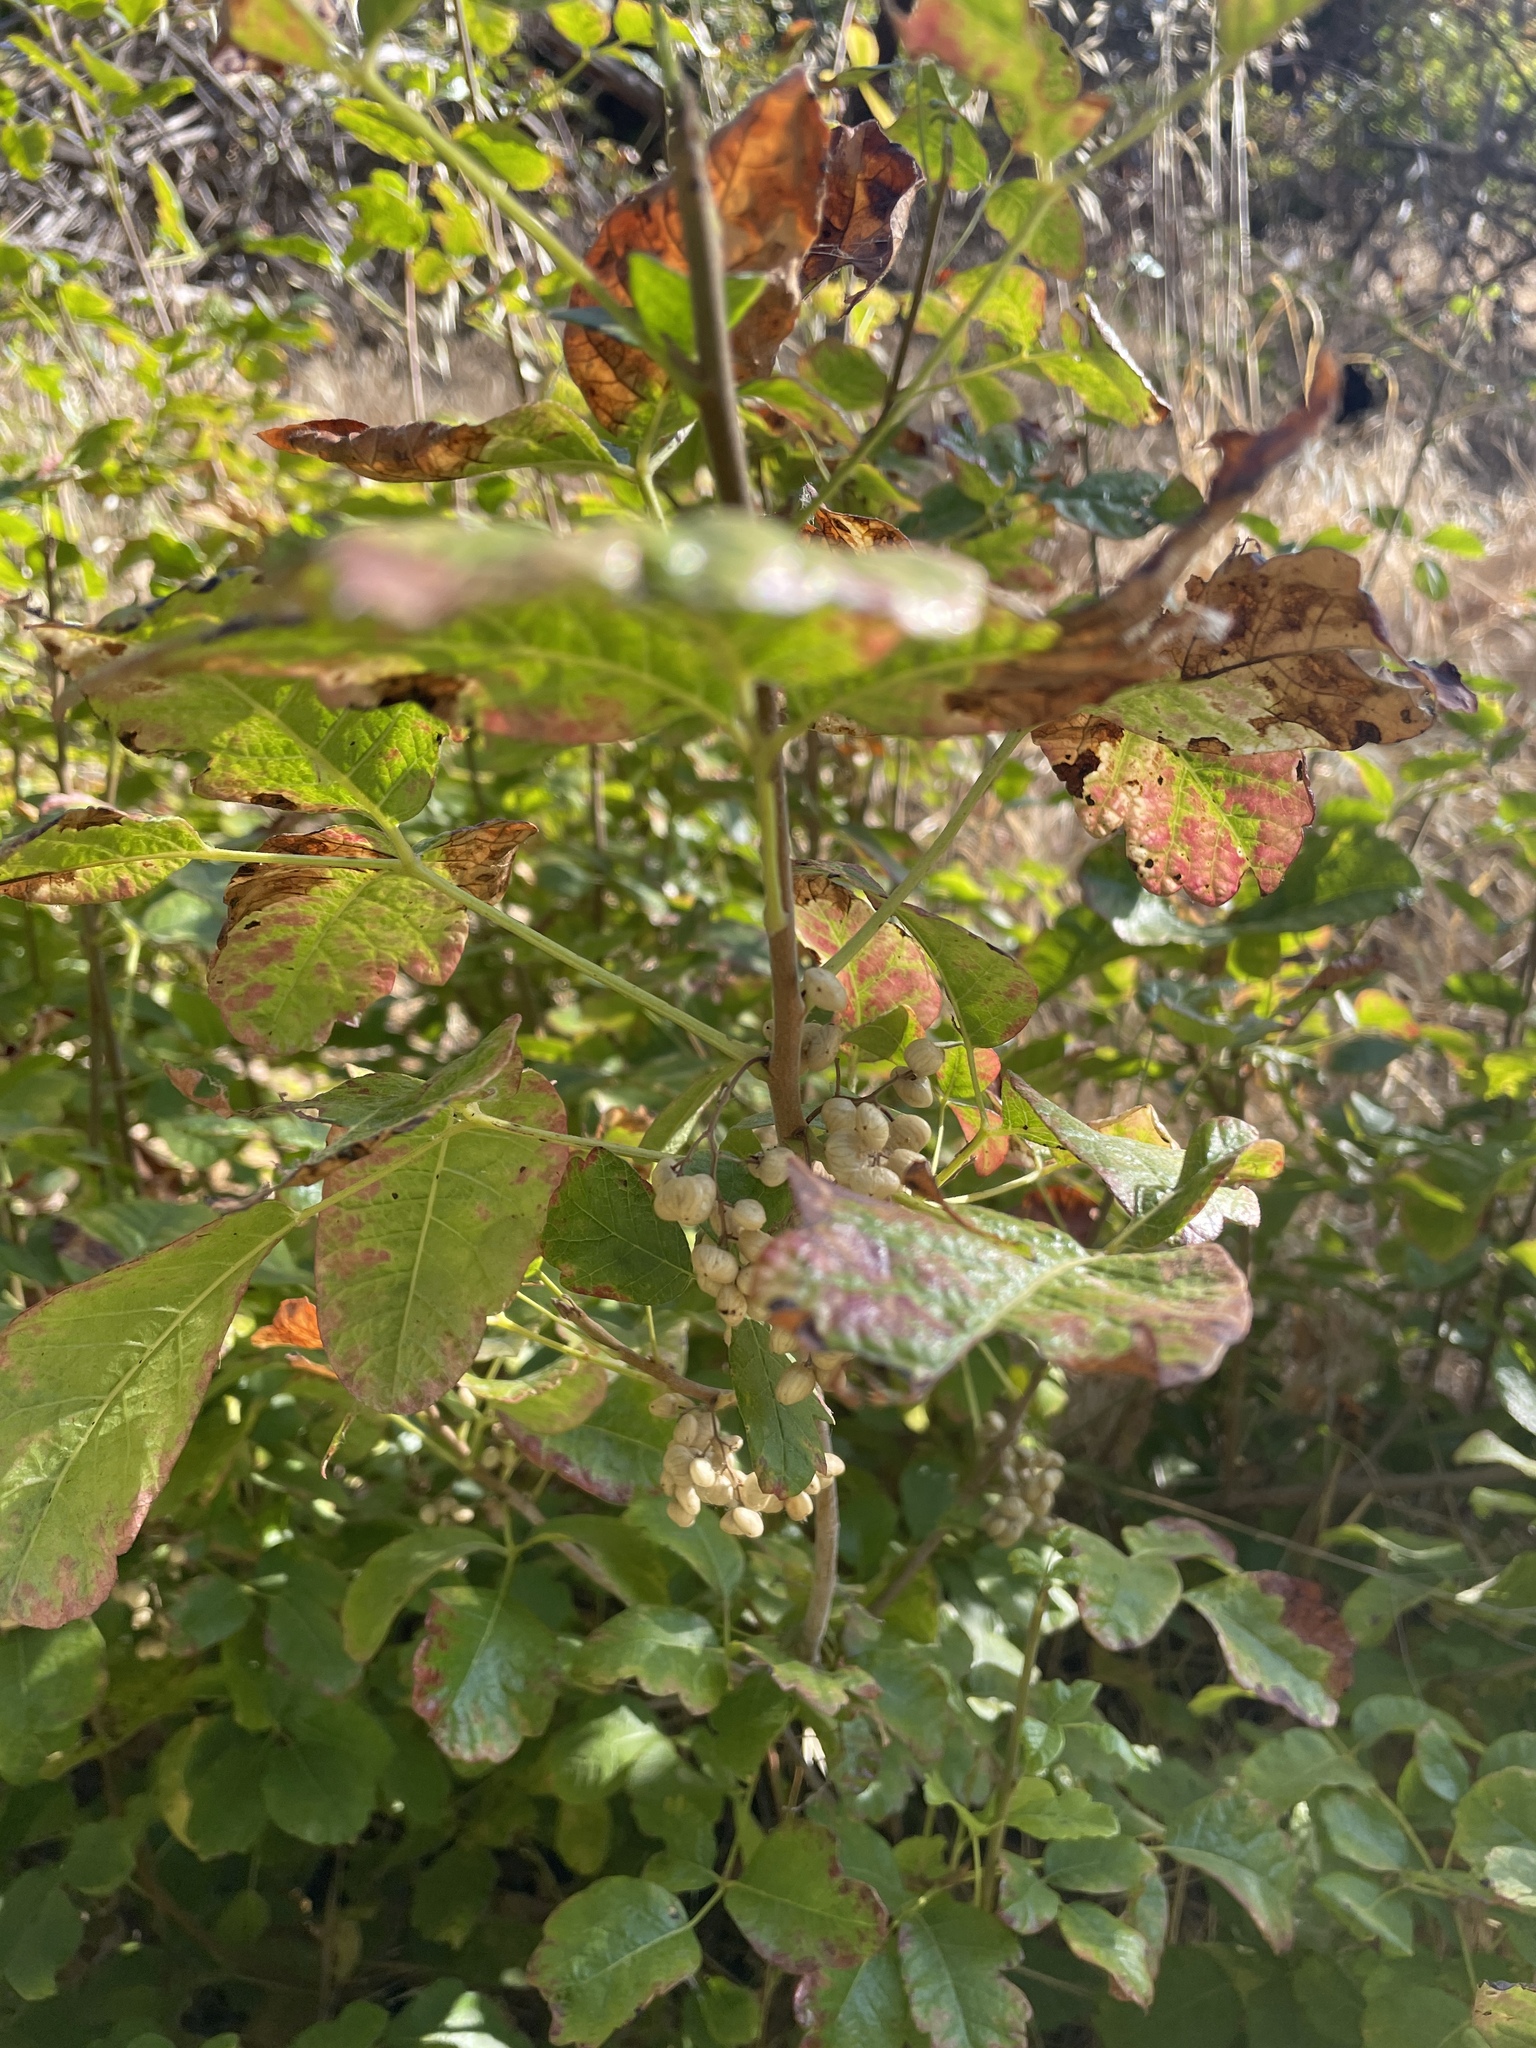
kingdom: Plantae
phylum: Tracheophyta
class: Magnoliopsida
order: Sapindales
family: Anacardiaceae
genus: Toxicodendron
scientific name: Toxicodendron diversilobum
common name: Pacific poison-oak
